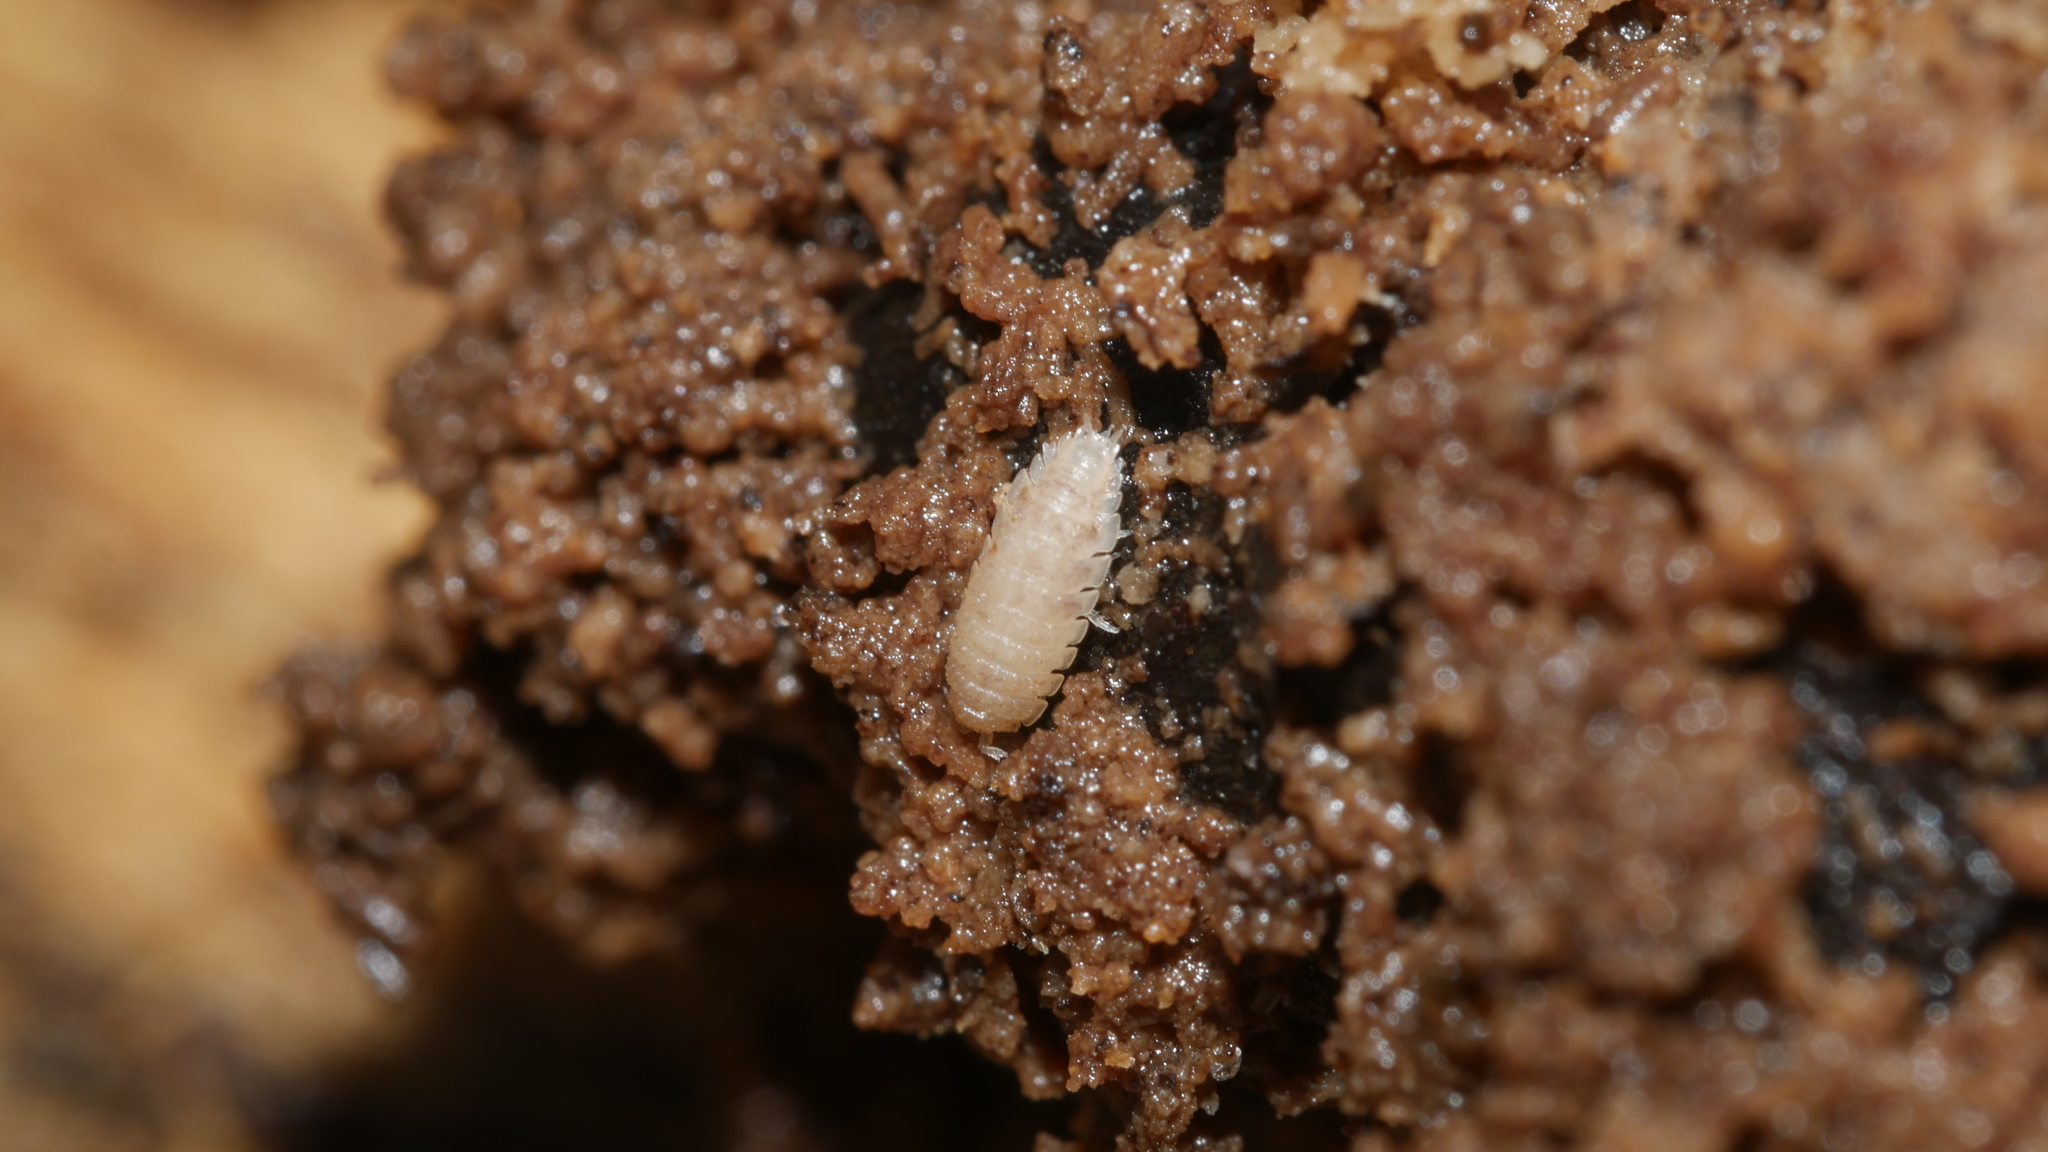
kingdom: Animalia
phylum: Arthropoda
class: Malacostraca
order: Isopoda
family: Trichoniscidae
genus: Haplophthalmus
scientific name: Haplophthalmus danicus
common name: Pillbug
